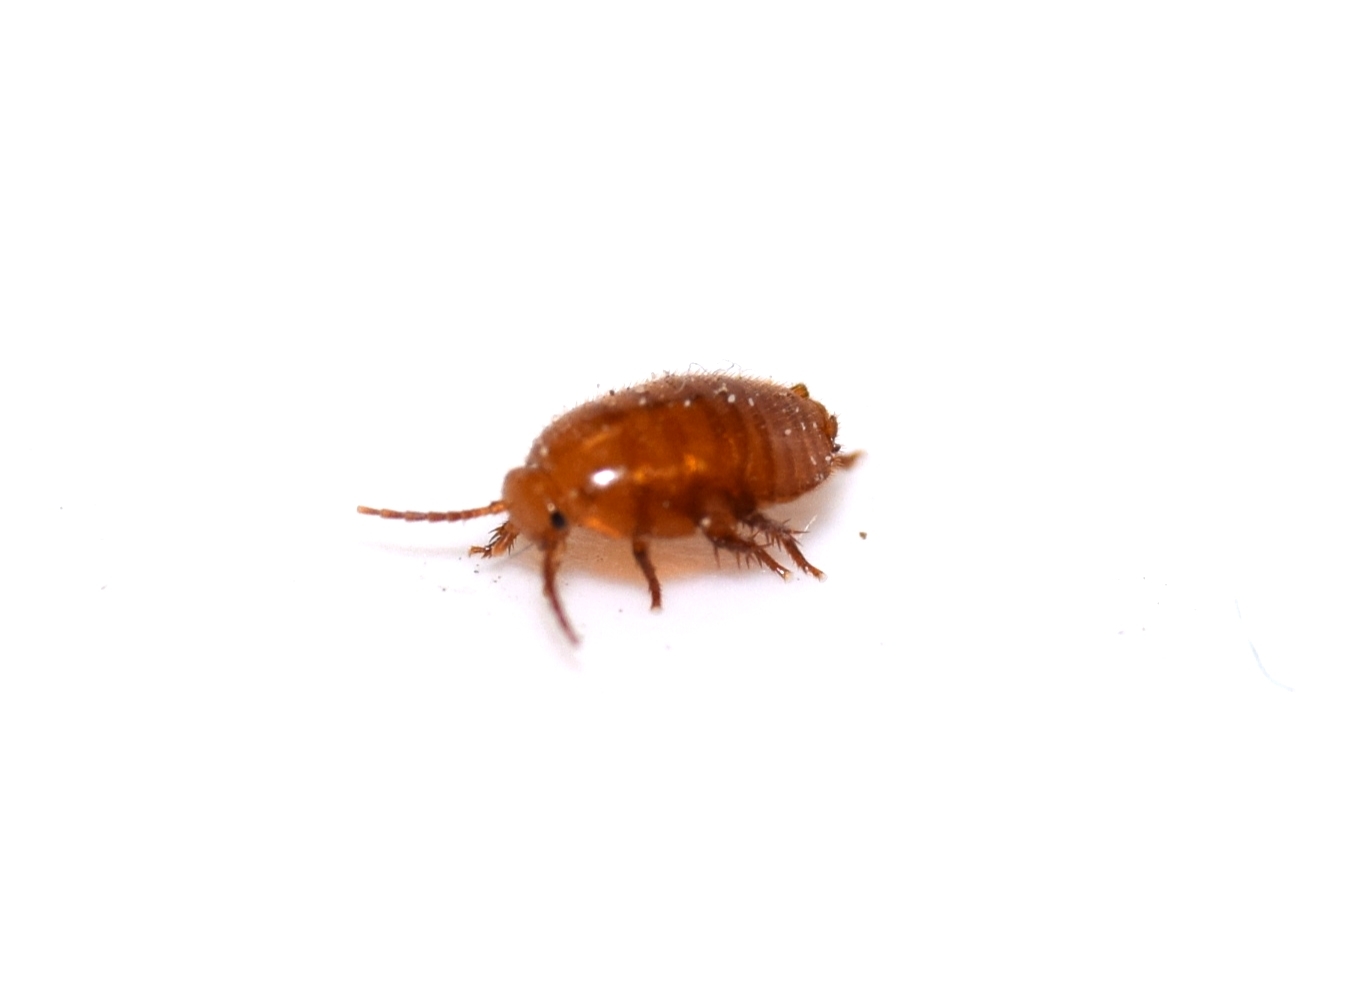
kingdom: Animalia
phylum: Arthropoda
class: Insecta
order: Blattodea
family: Ectobiidae
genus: Attaphila
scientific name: Attaphila fungicola
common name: Ant cockroach
